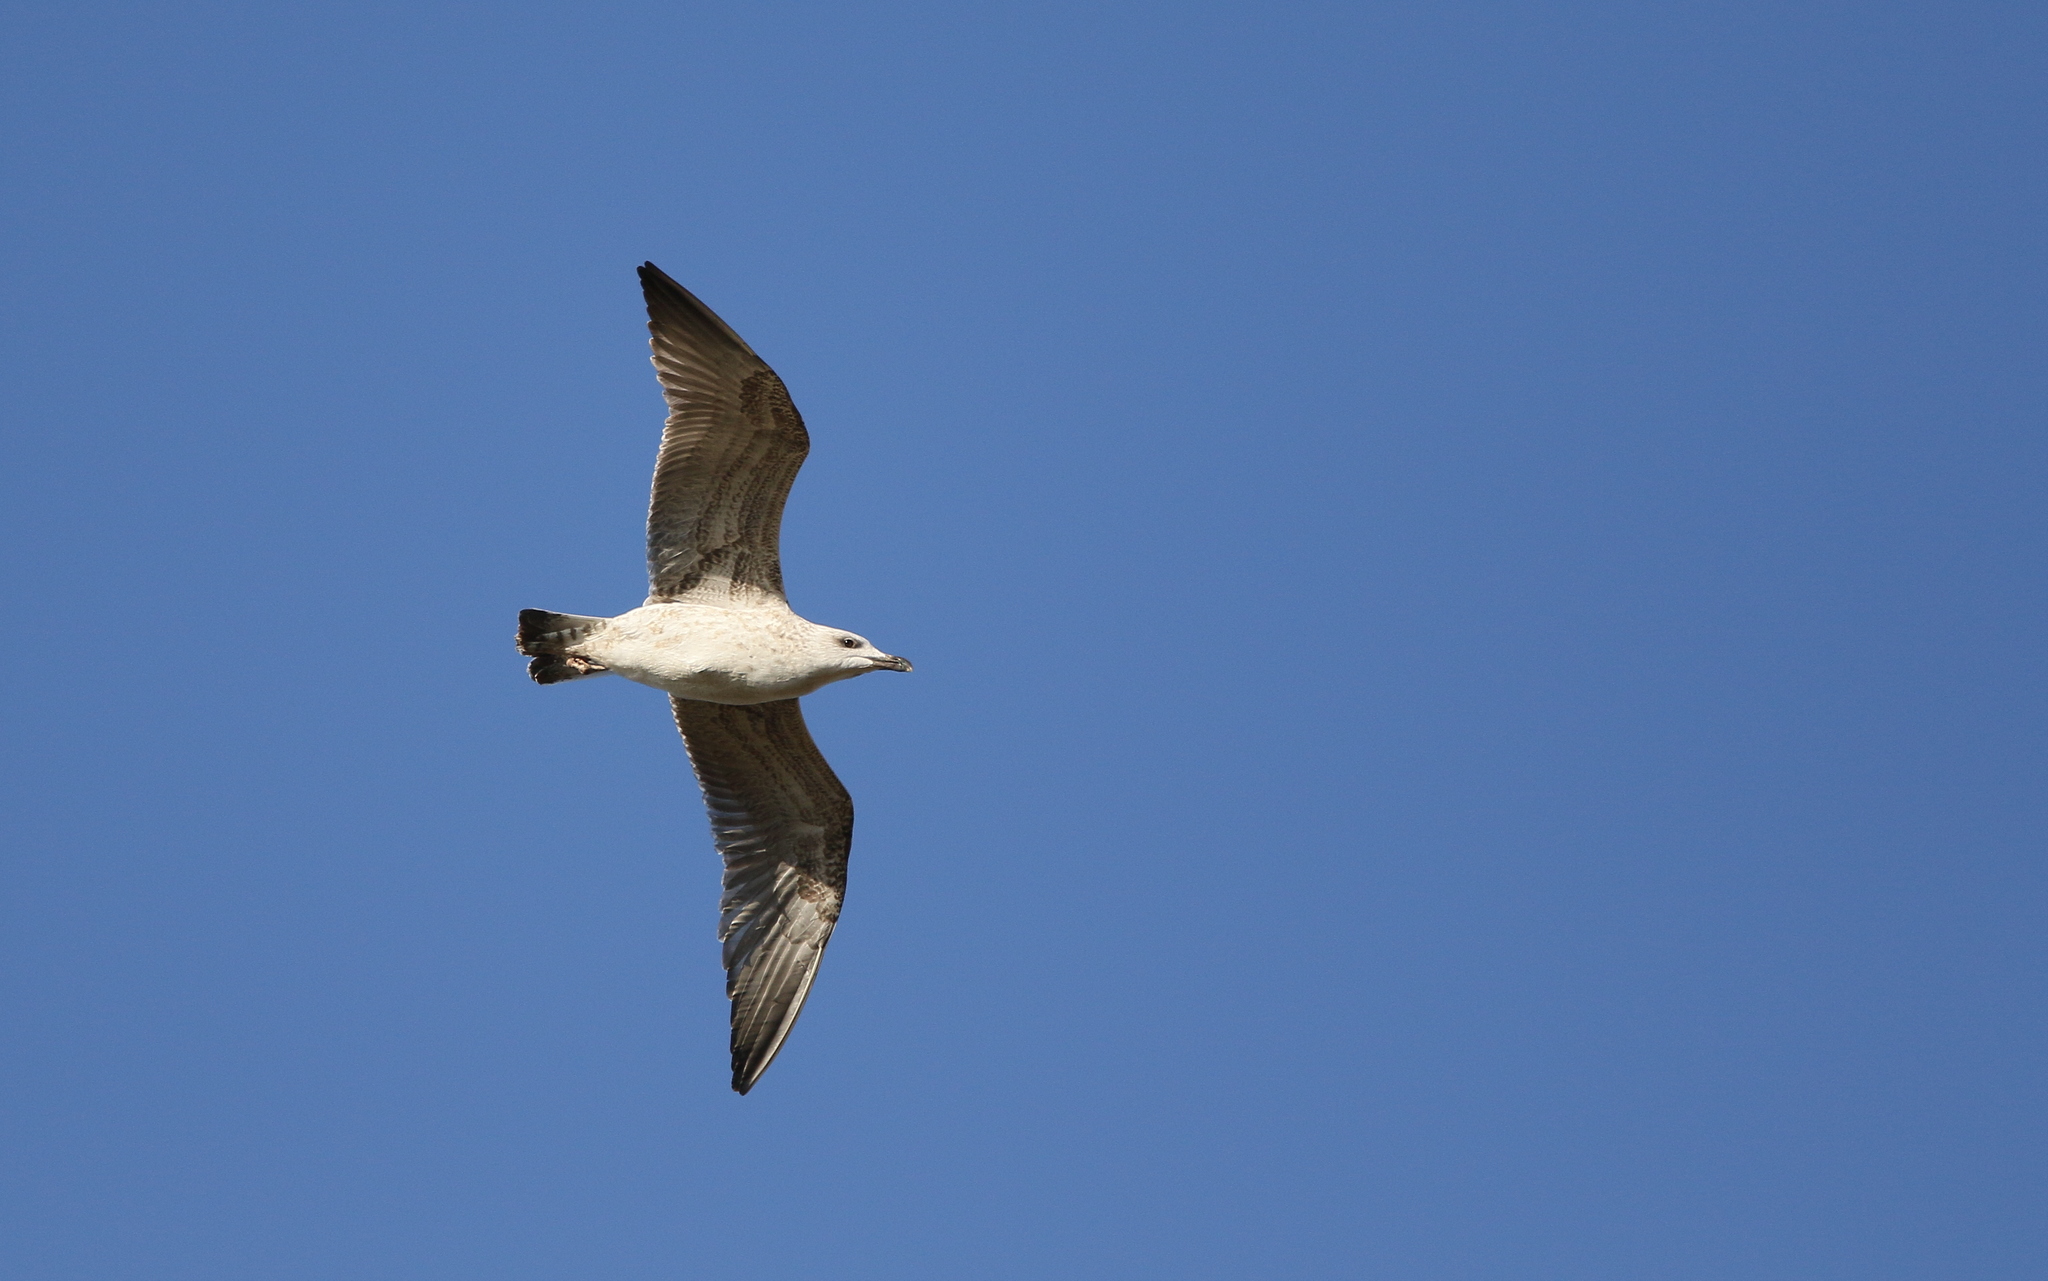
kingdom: Animalia
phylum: Chordata
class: Aves
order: Charadriiformes
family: Laridae
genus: Larus
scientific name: Larus michahellis
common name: Yellow-legged gull
